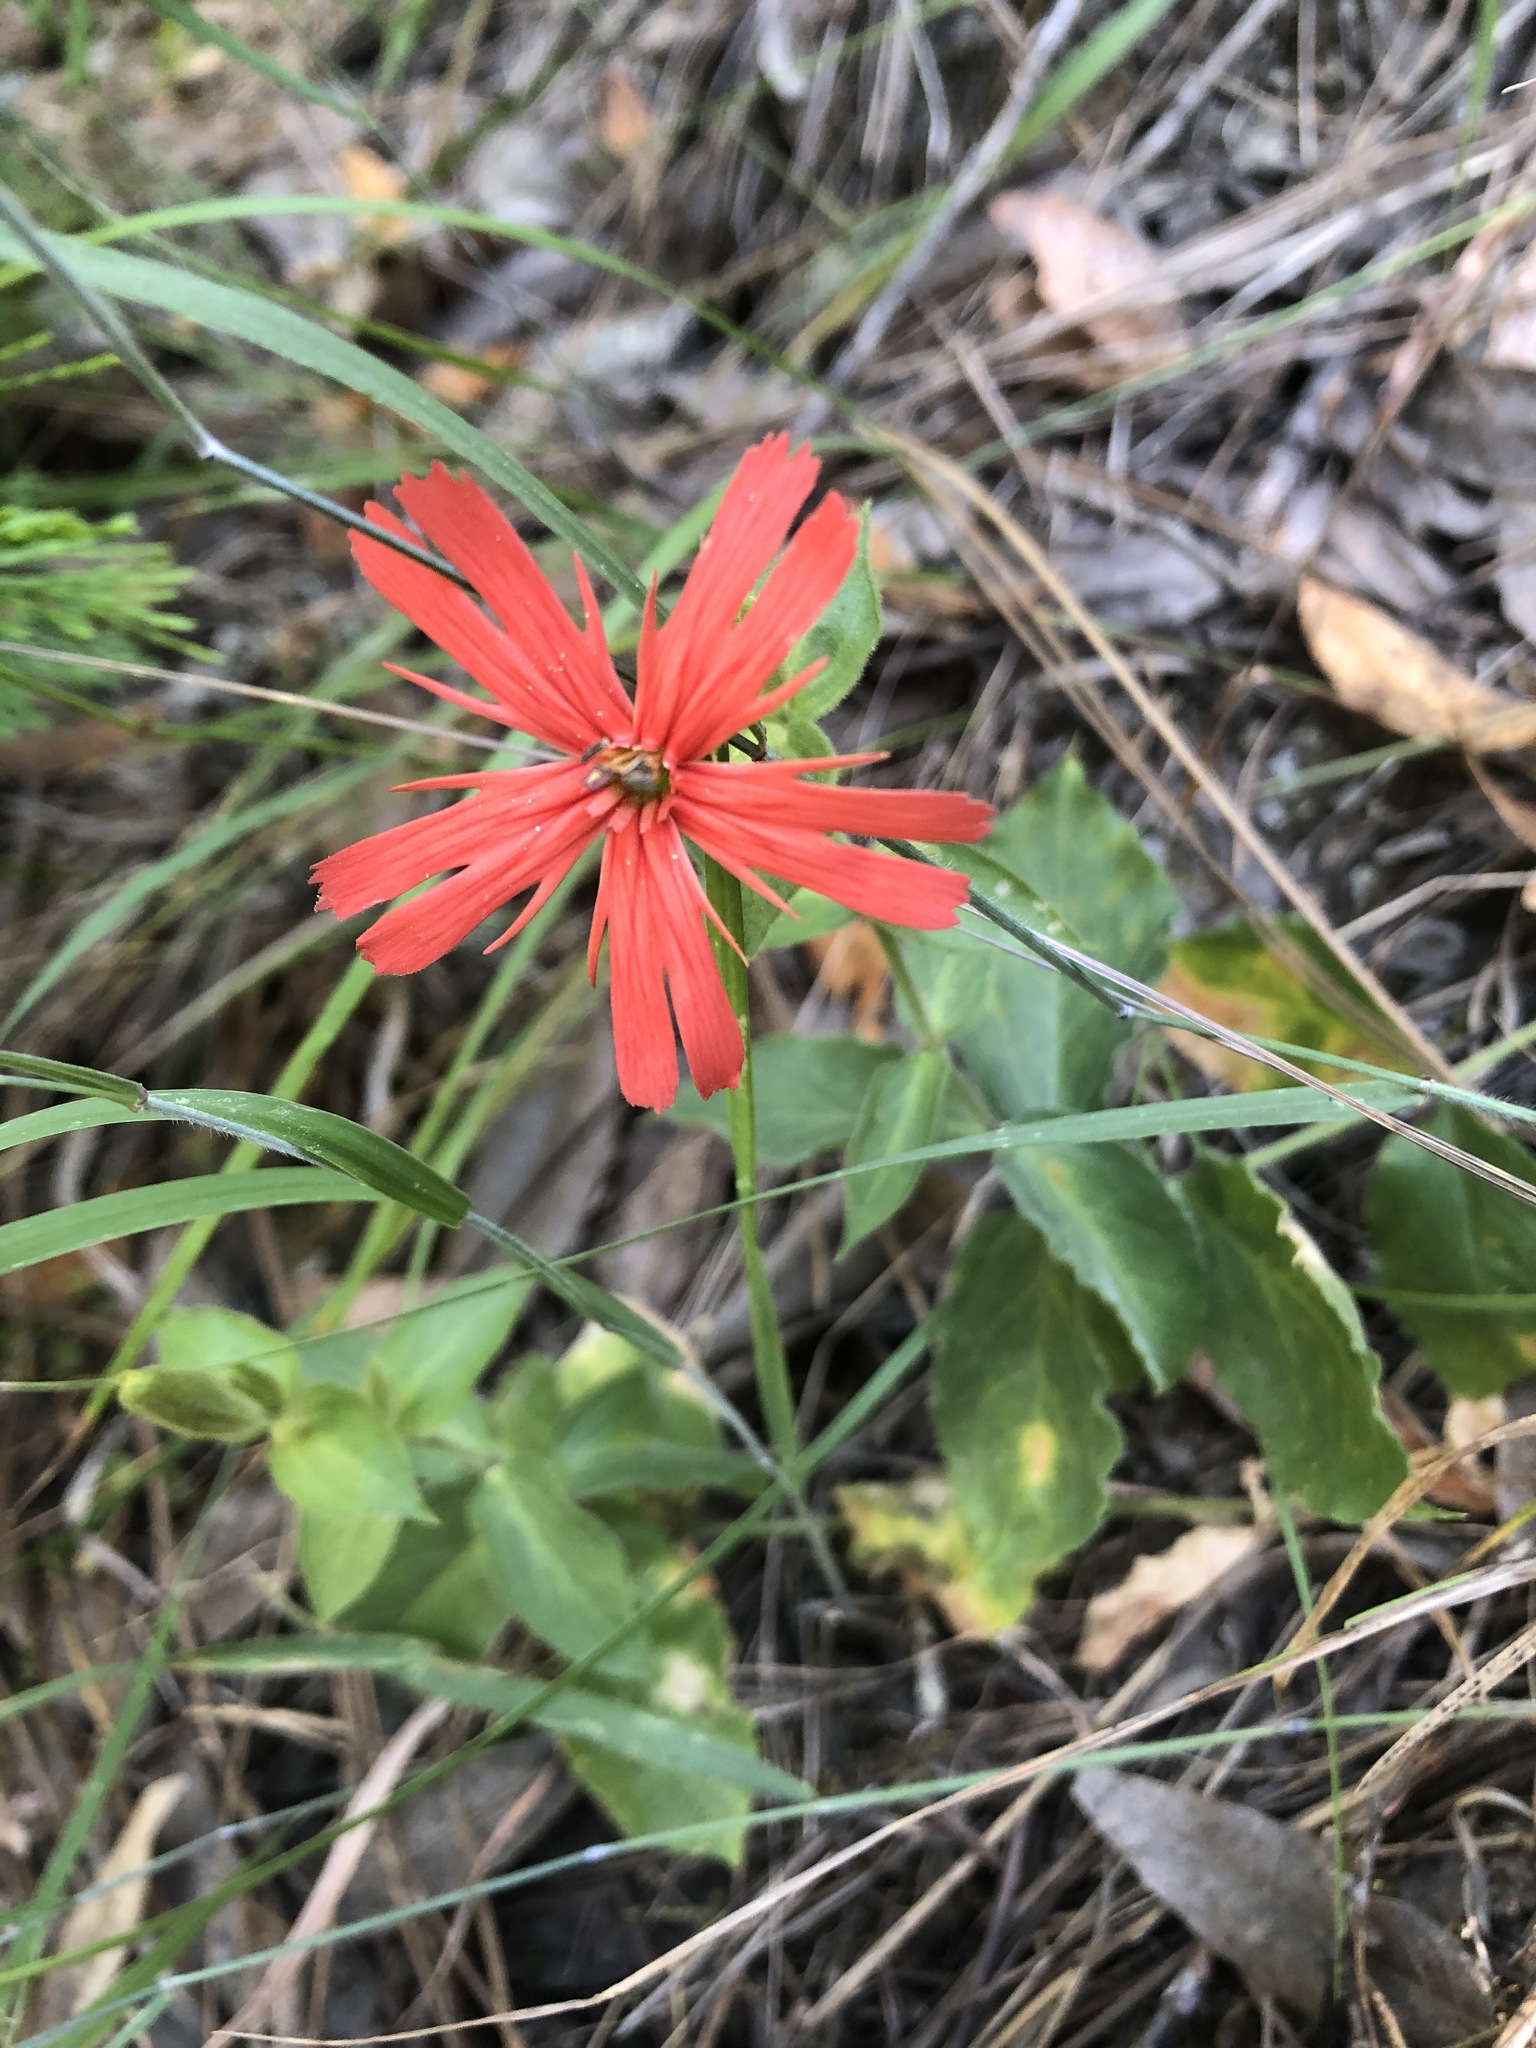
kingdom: Plantae
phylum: Tracheophyta
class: Magnoliopsida
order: Caryophyllales
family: Caryophyllaceae
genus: Silene
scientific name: Silene laciniata
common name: Indian-pink
